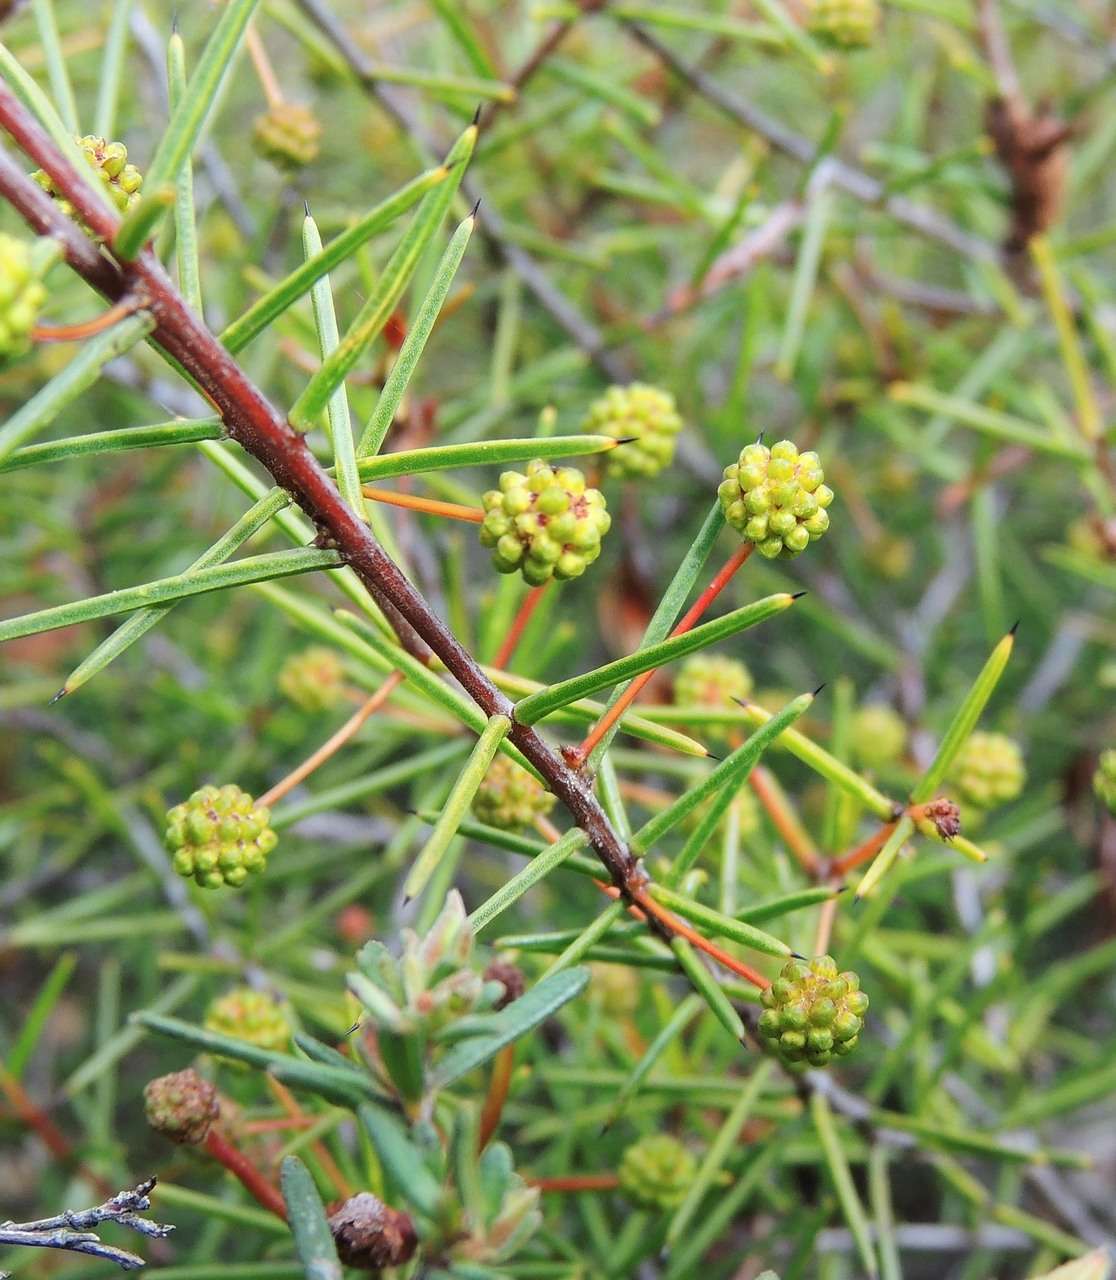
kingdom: Plantae
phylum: Tracheophyta
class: Magnoliopsida
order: Fabales
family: Fabaceae
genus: Acacia
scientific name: Acacia brownii
